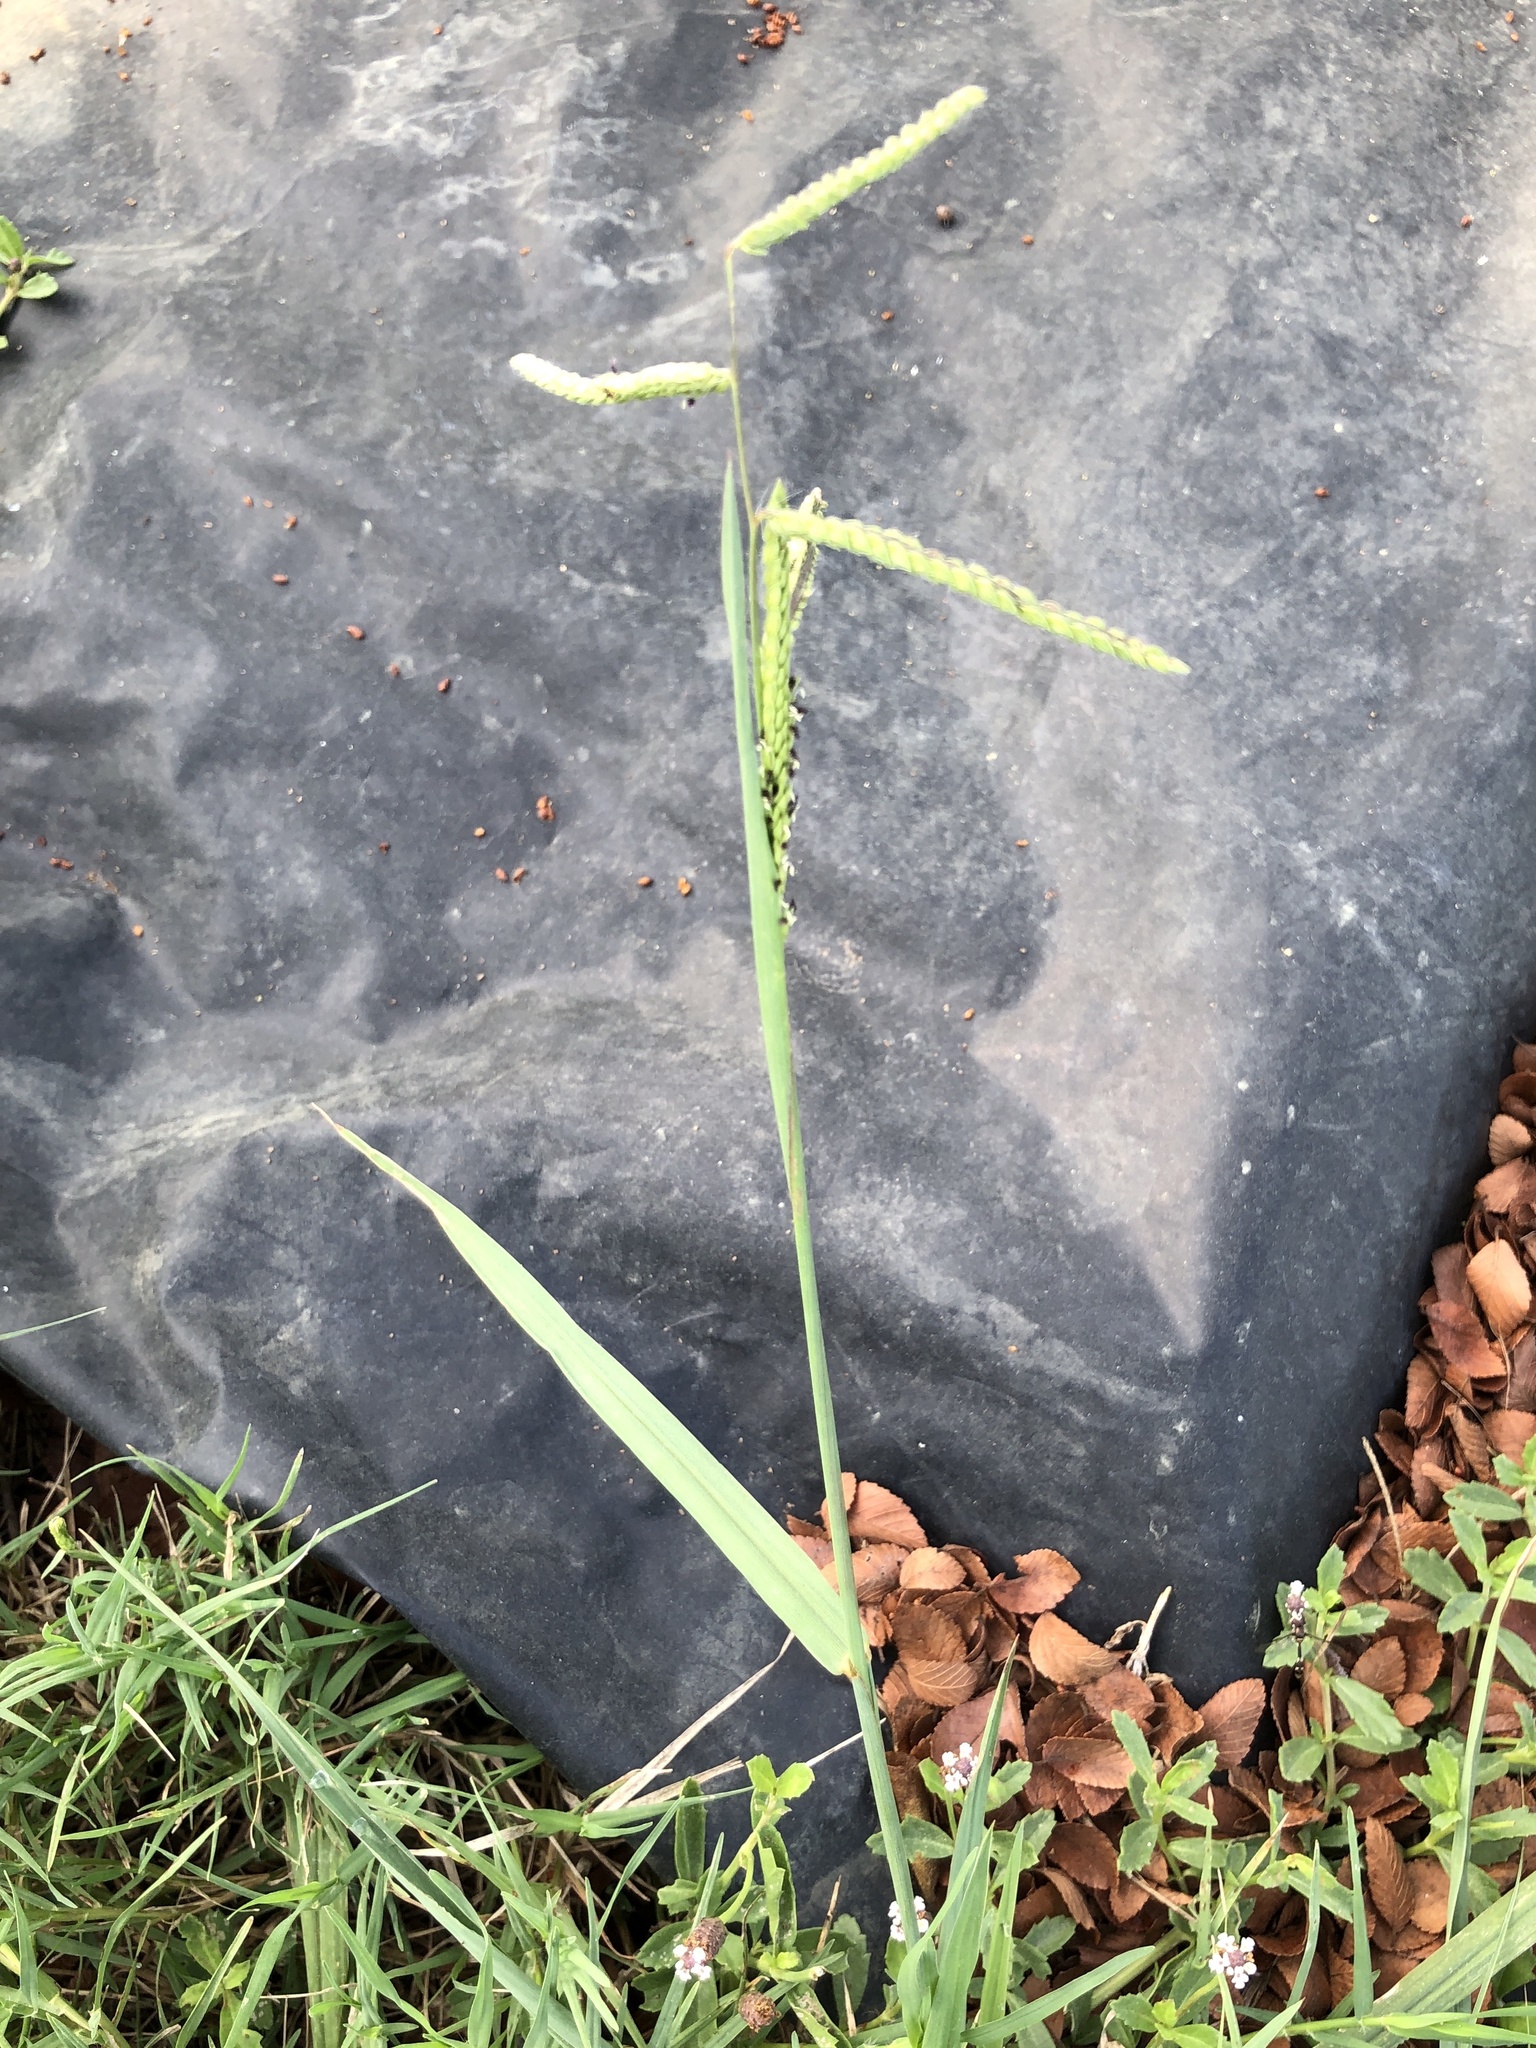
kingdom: Plantae
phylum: Tracheophyta
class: Liliopsida
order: Poales
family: Poaceae
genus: Paspalum
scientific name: Paspalum dilatatum
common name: Dallisgrass
